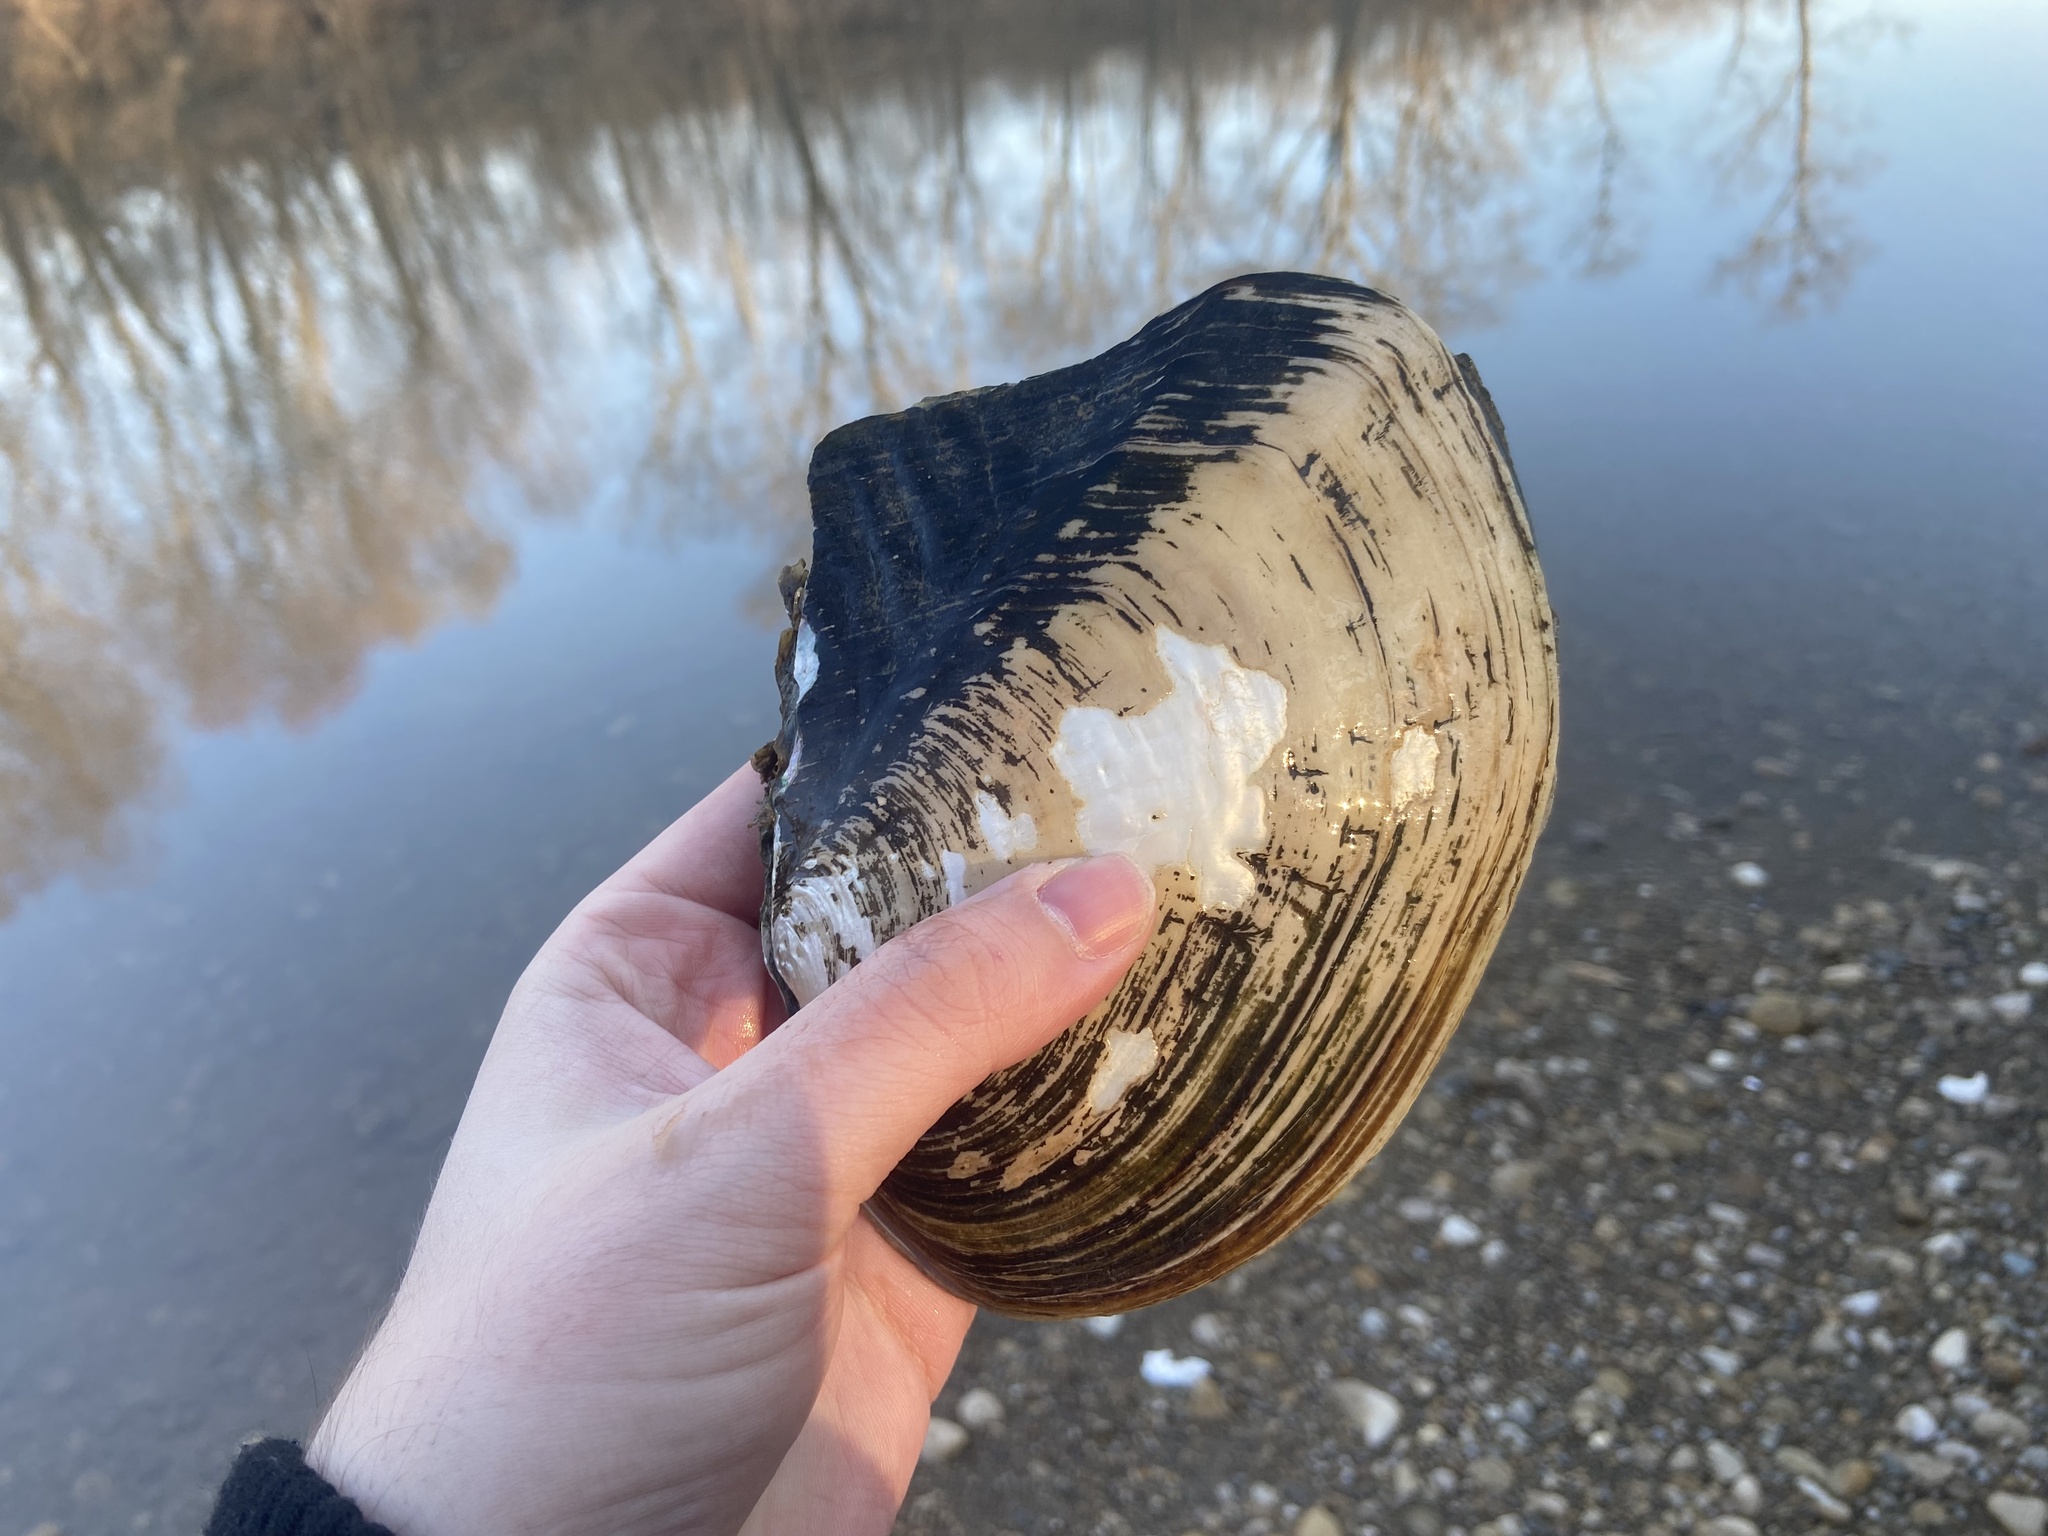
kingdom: Animalia
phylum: Mollusca
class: Bivalvia
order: Unionida
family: Unionidae
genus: Lasmigona
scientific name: Lasmigona complanata
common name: White heelsplitter
